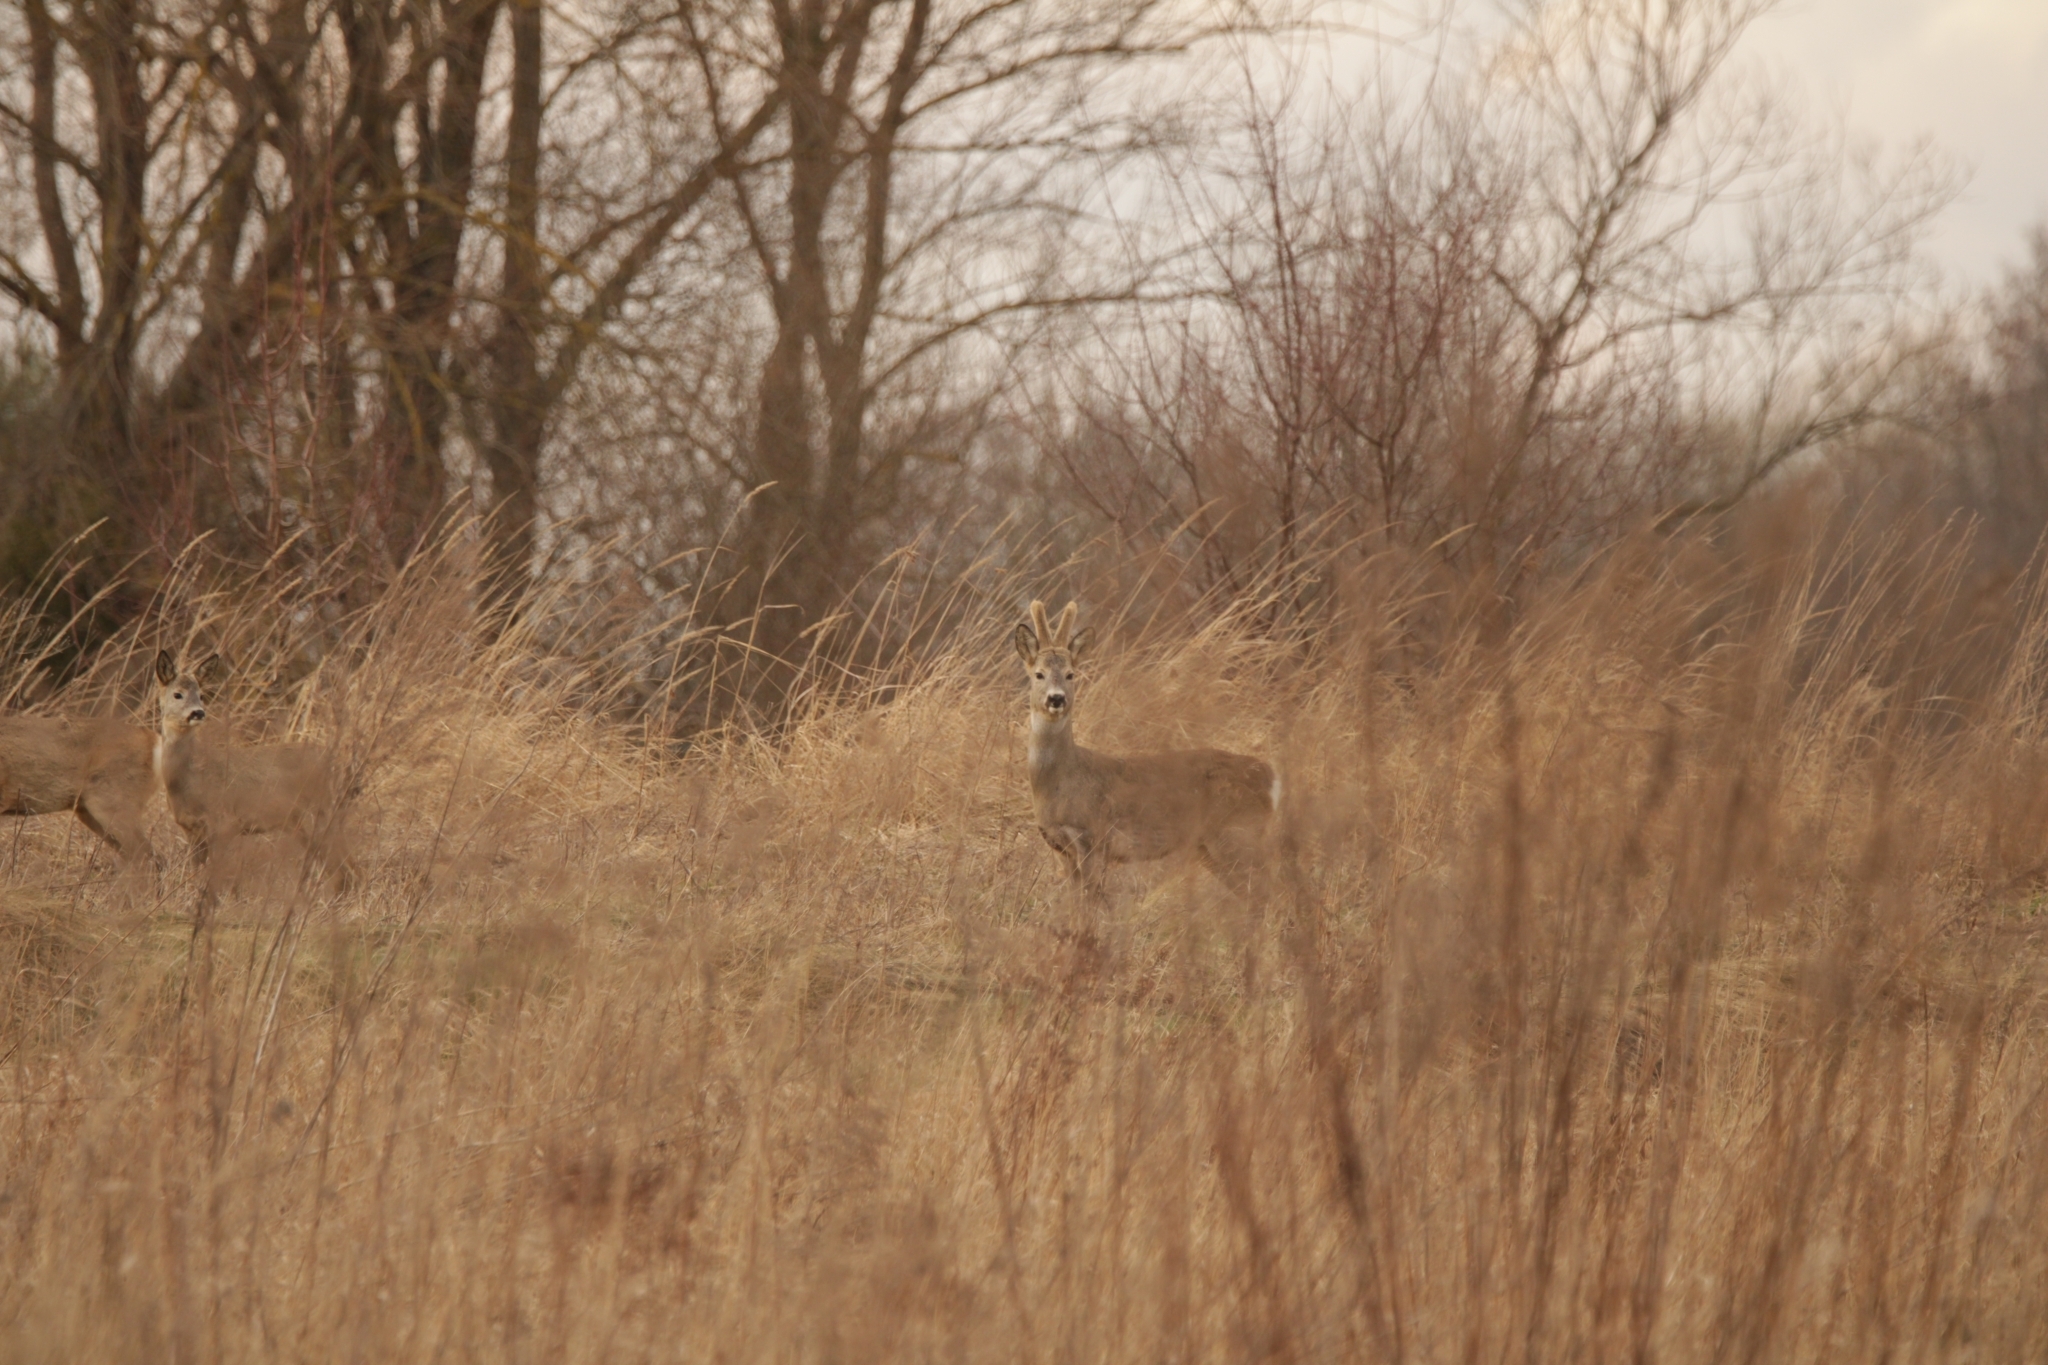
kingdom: Animalia
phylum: Chordata
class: Mammalia
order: Artiodactyla
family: Cervidae
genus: Capreolus
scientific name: Capreolus capreolus
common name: Western roe deer
